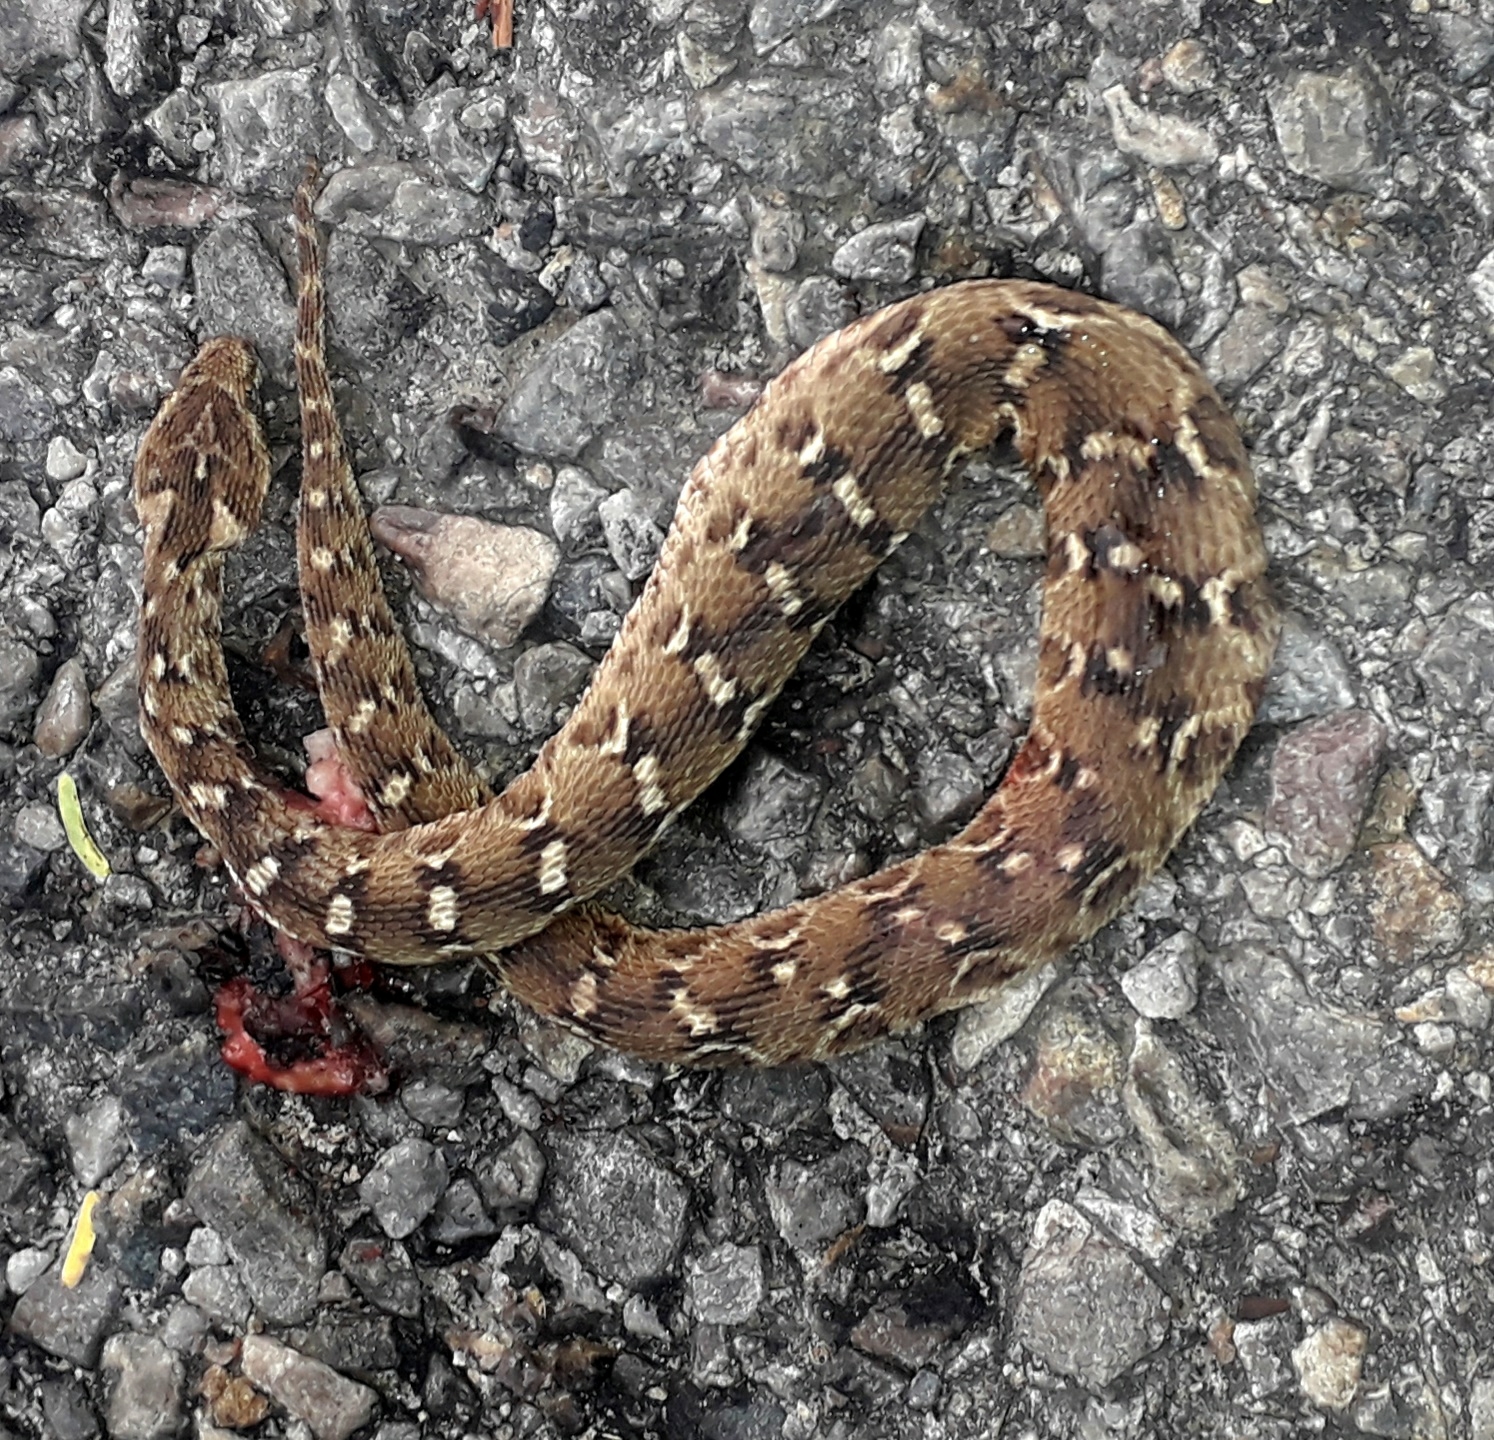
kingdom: Animalia
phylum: Chordata
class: Squamata
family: Viperidae
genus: Echis
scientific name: Echis carinatus
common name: Saw-scaled viper
